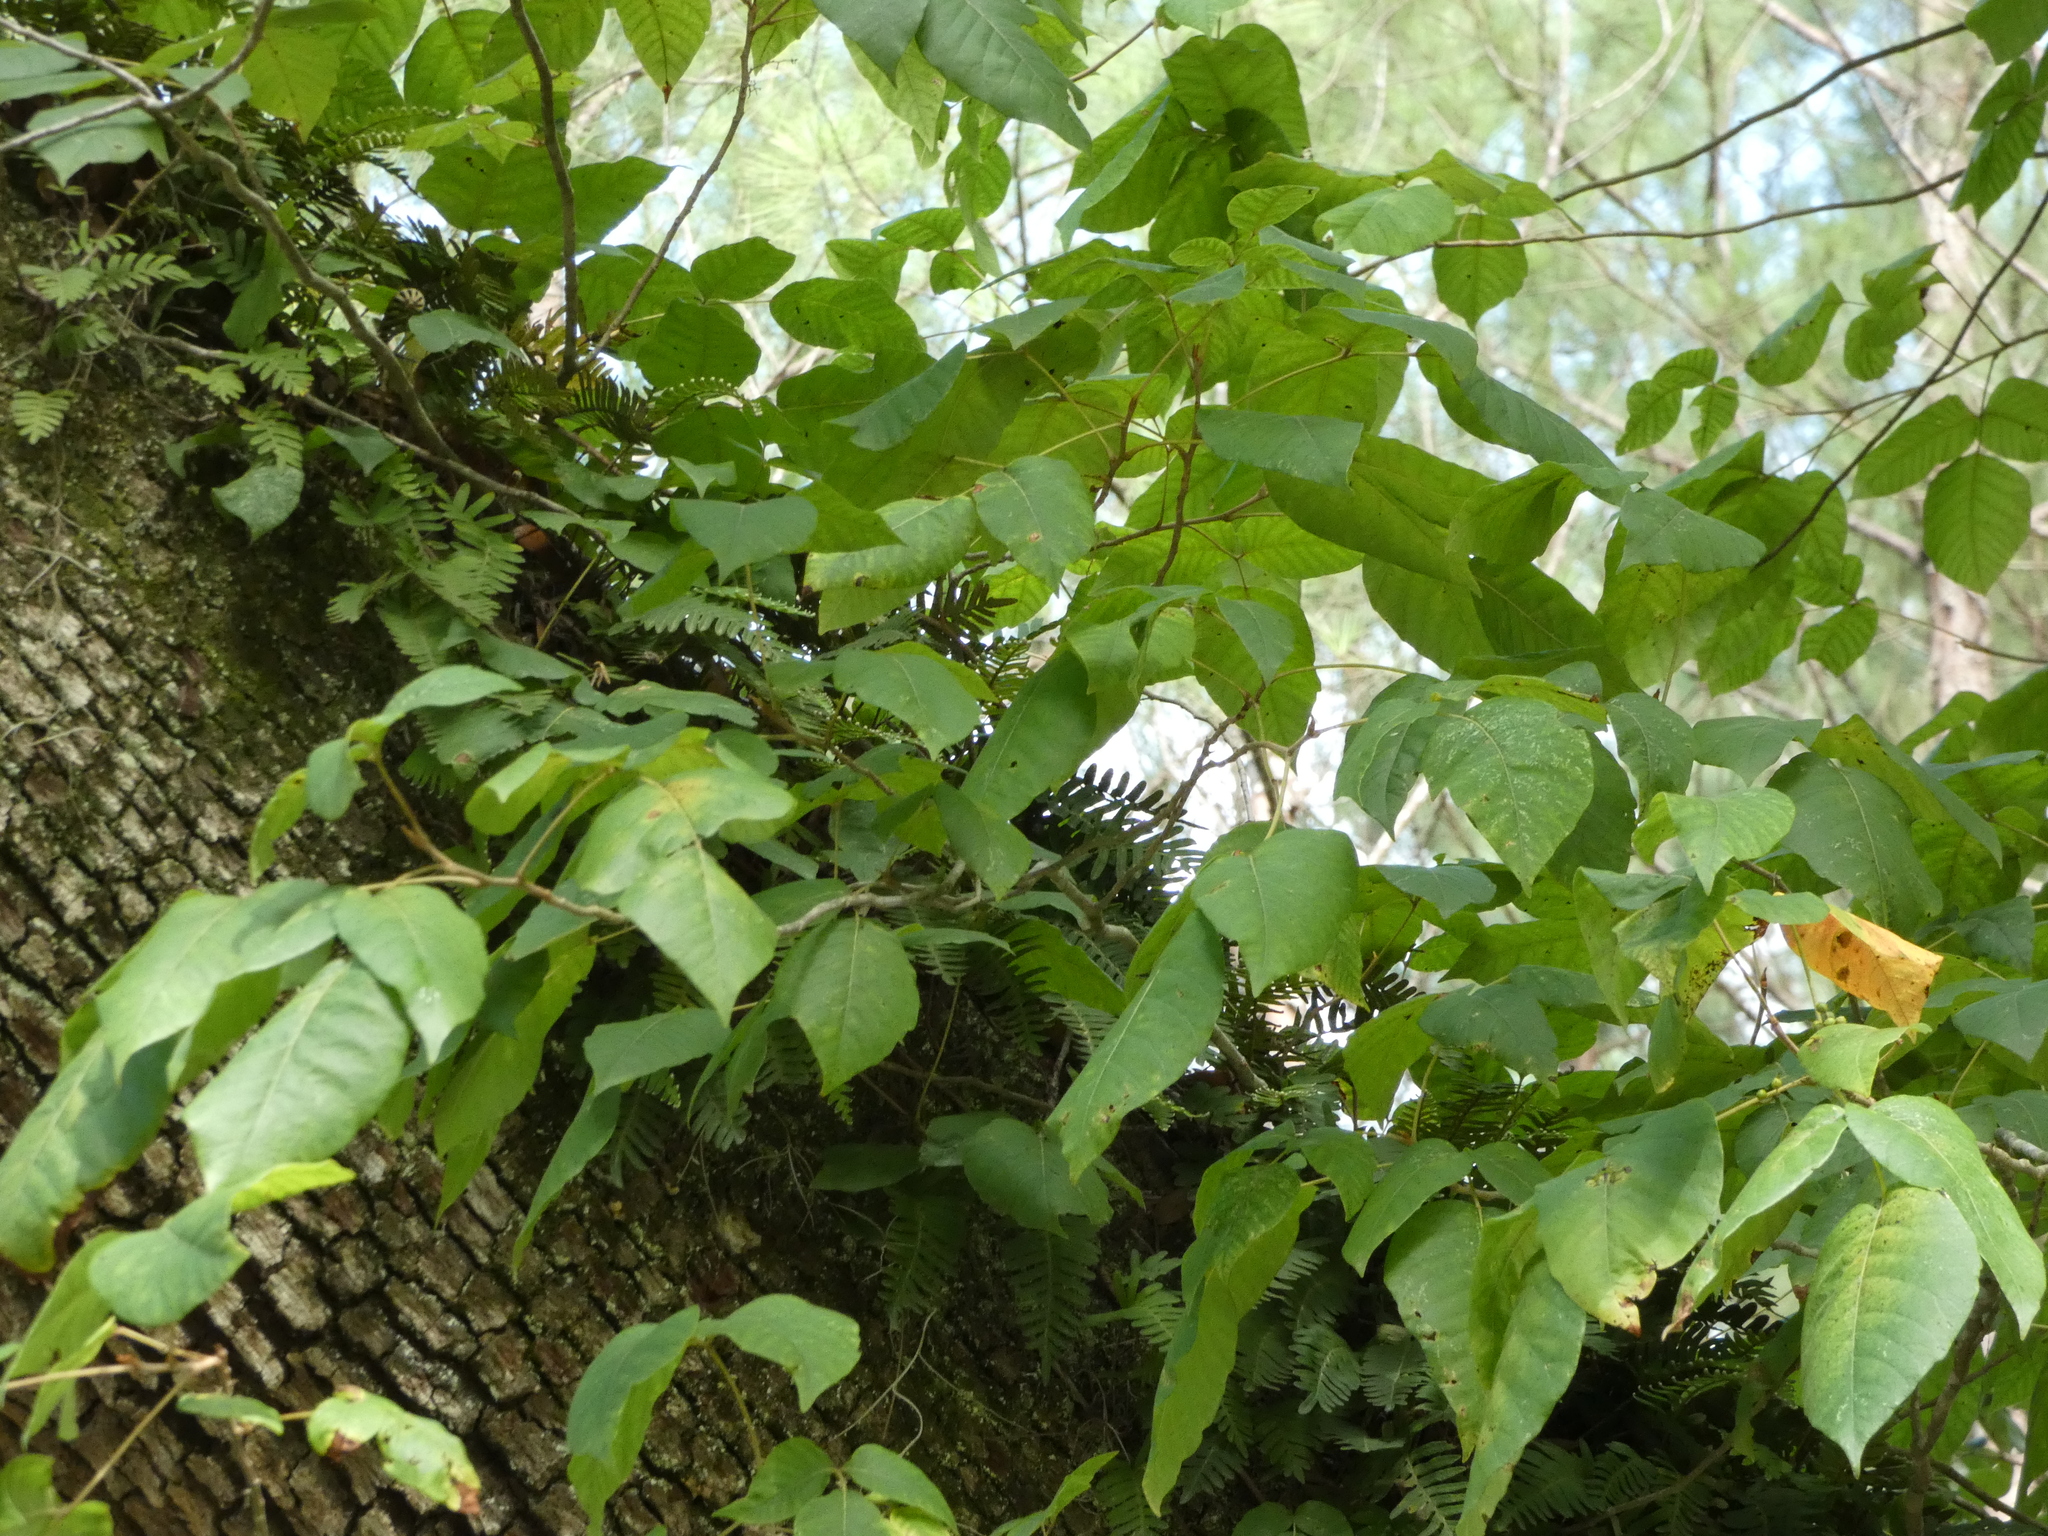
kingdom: Plantae
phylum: Tracheophyta
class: Magnoliopsida
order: Sapindales
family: Anacardiaceae
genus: Toxicodendron
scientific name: Toxicodendron radicans
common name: Poison ivy
